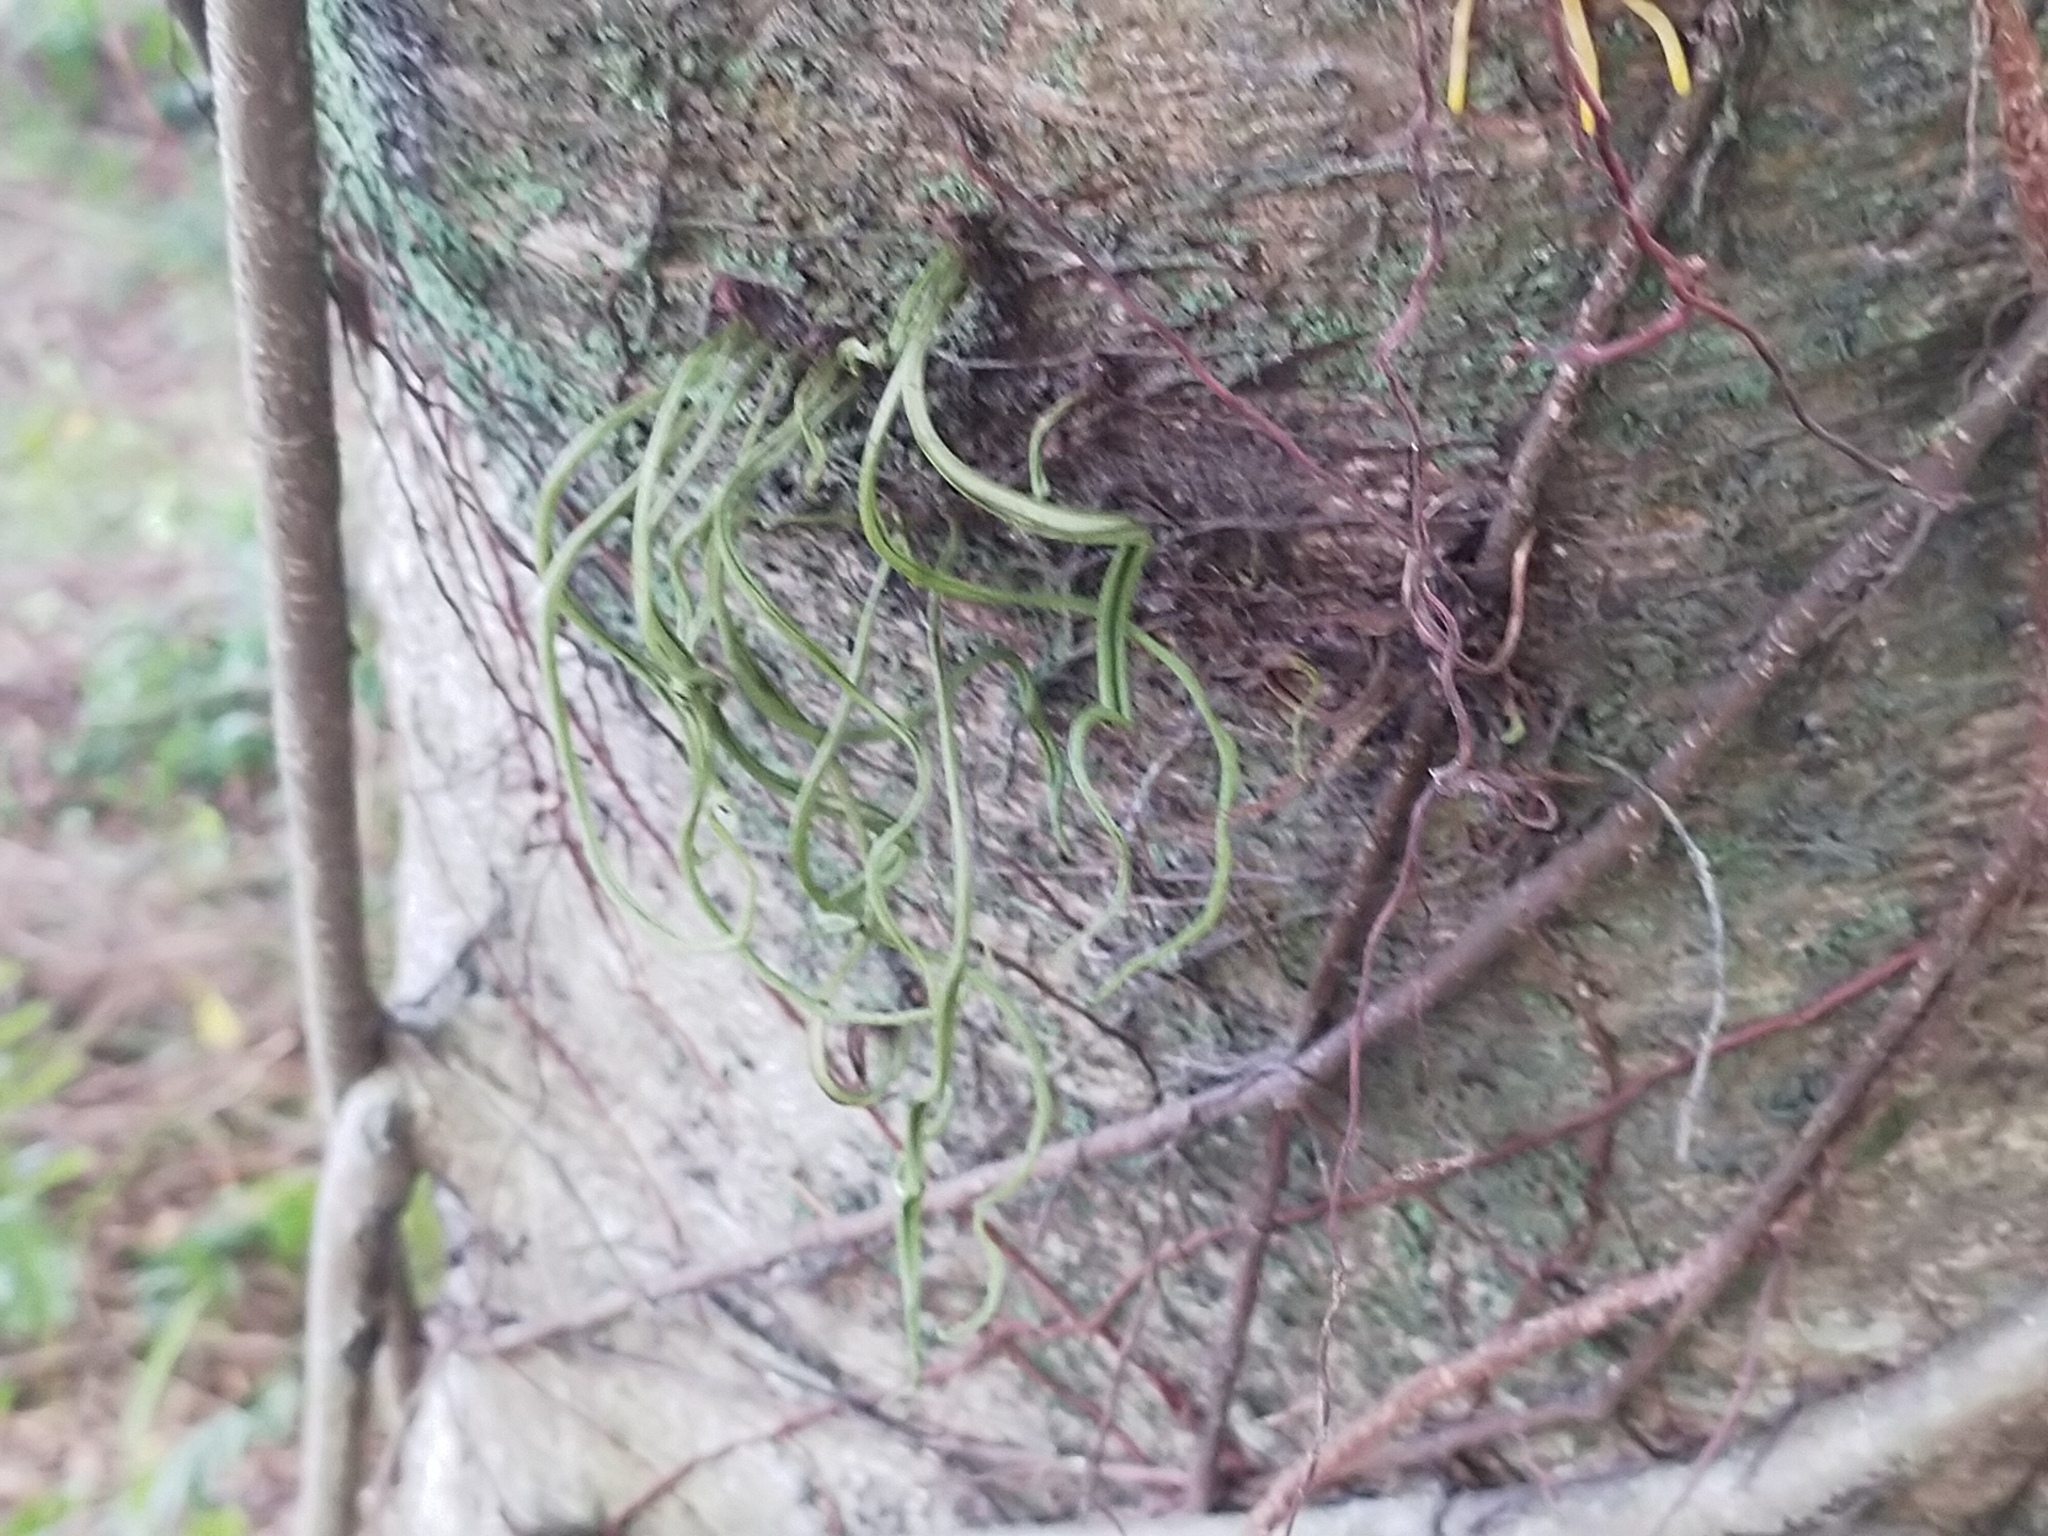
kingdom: Plantae
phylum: Tracheophyta
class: Polypodiopsida
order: Polypodiales
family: Polypodiaceae
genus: Lepisorus
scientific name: Lepisorus thunbergianus
